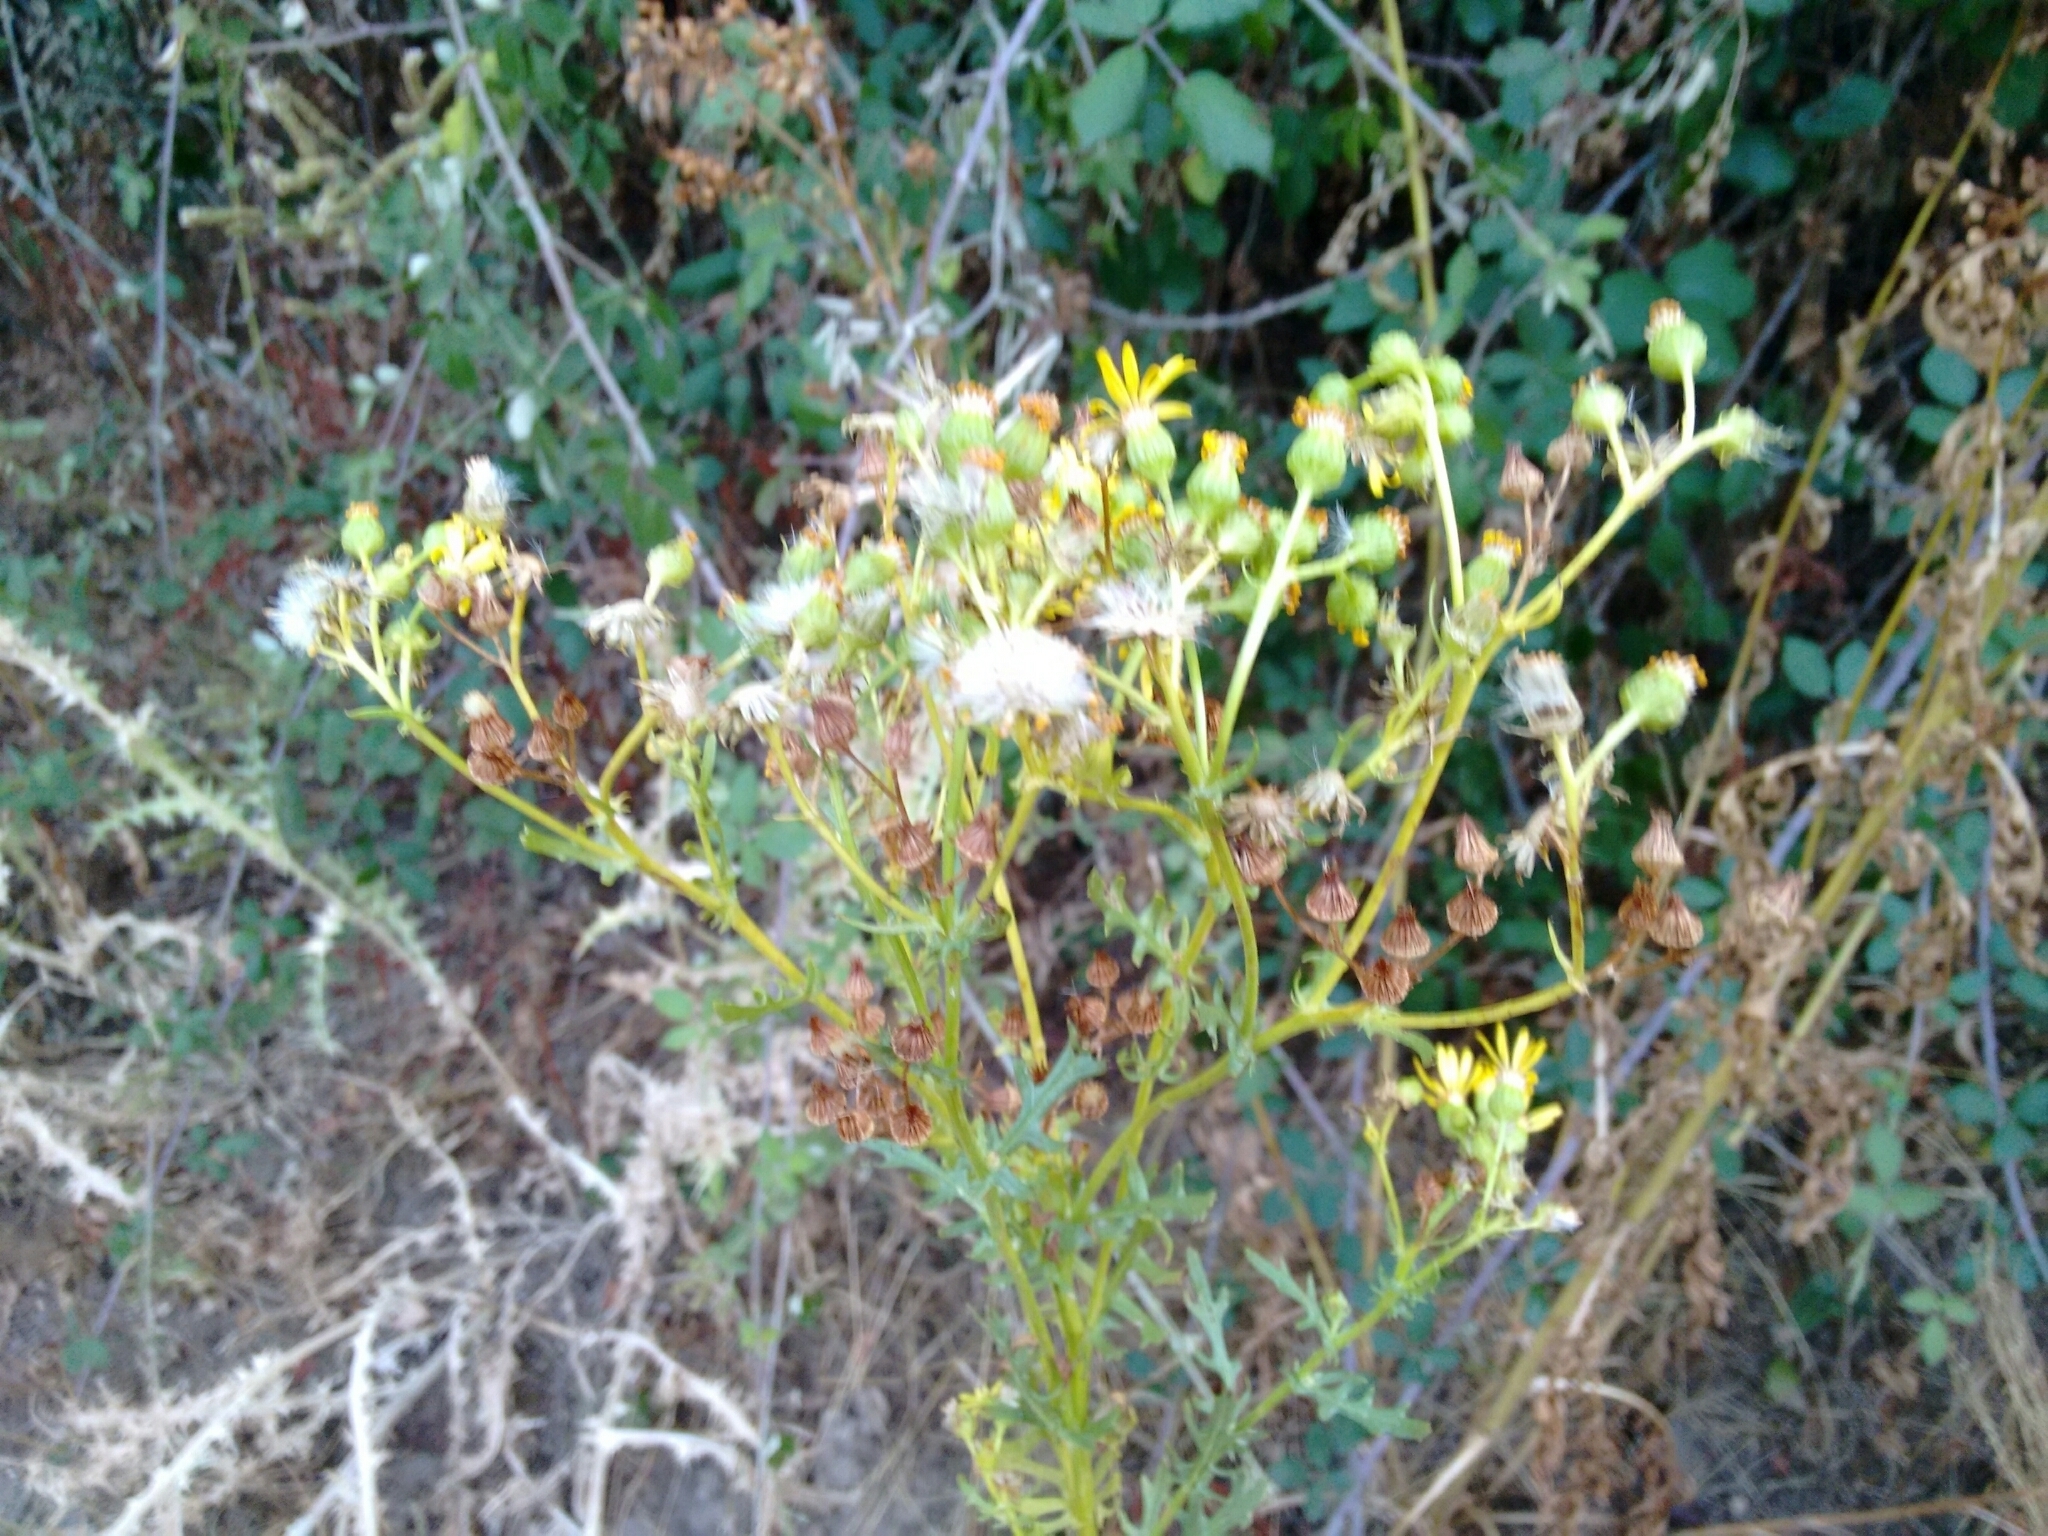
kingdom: Plantae
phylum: Tracheophyta
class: Magnoliopsida
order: Asterales
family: Asteraceae
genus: Jacobaea
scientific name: Jacobaea vulgaris
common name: Stinking willie
